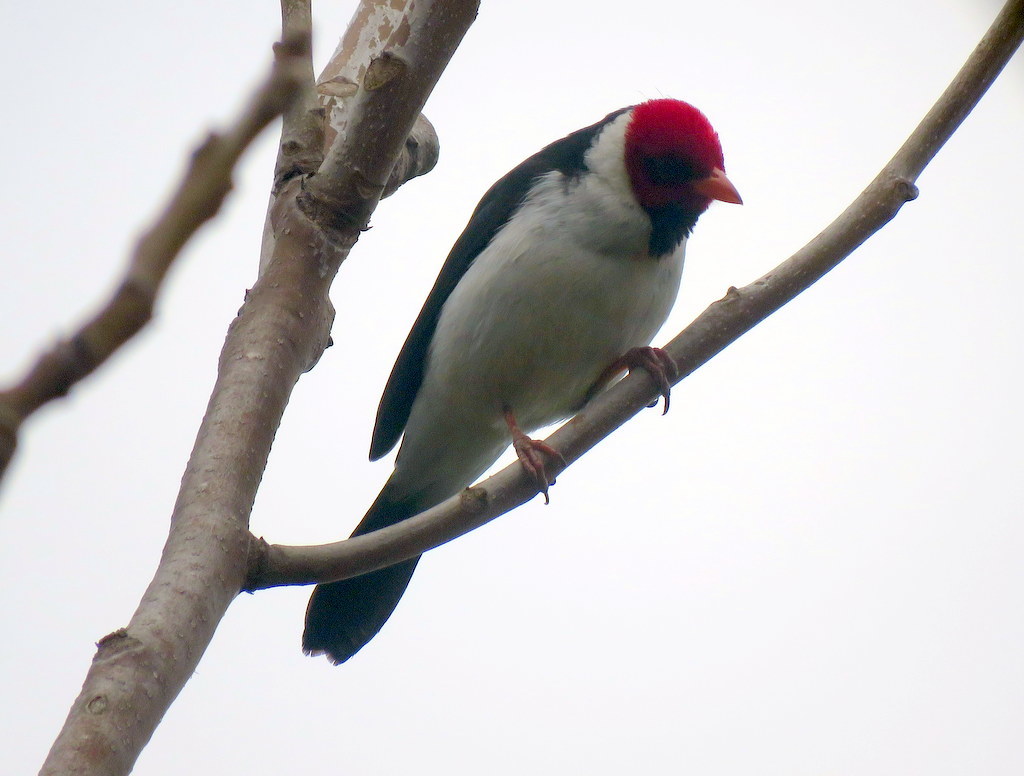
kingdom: Animalia
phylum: Chordata
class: Aves
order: Passeriformes
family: Thraupidae
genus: Paroaria
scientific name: Paroaria capitata
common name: Yellow-billed cardinal
